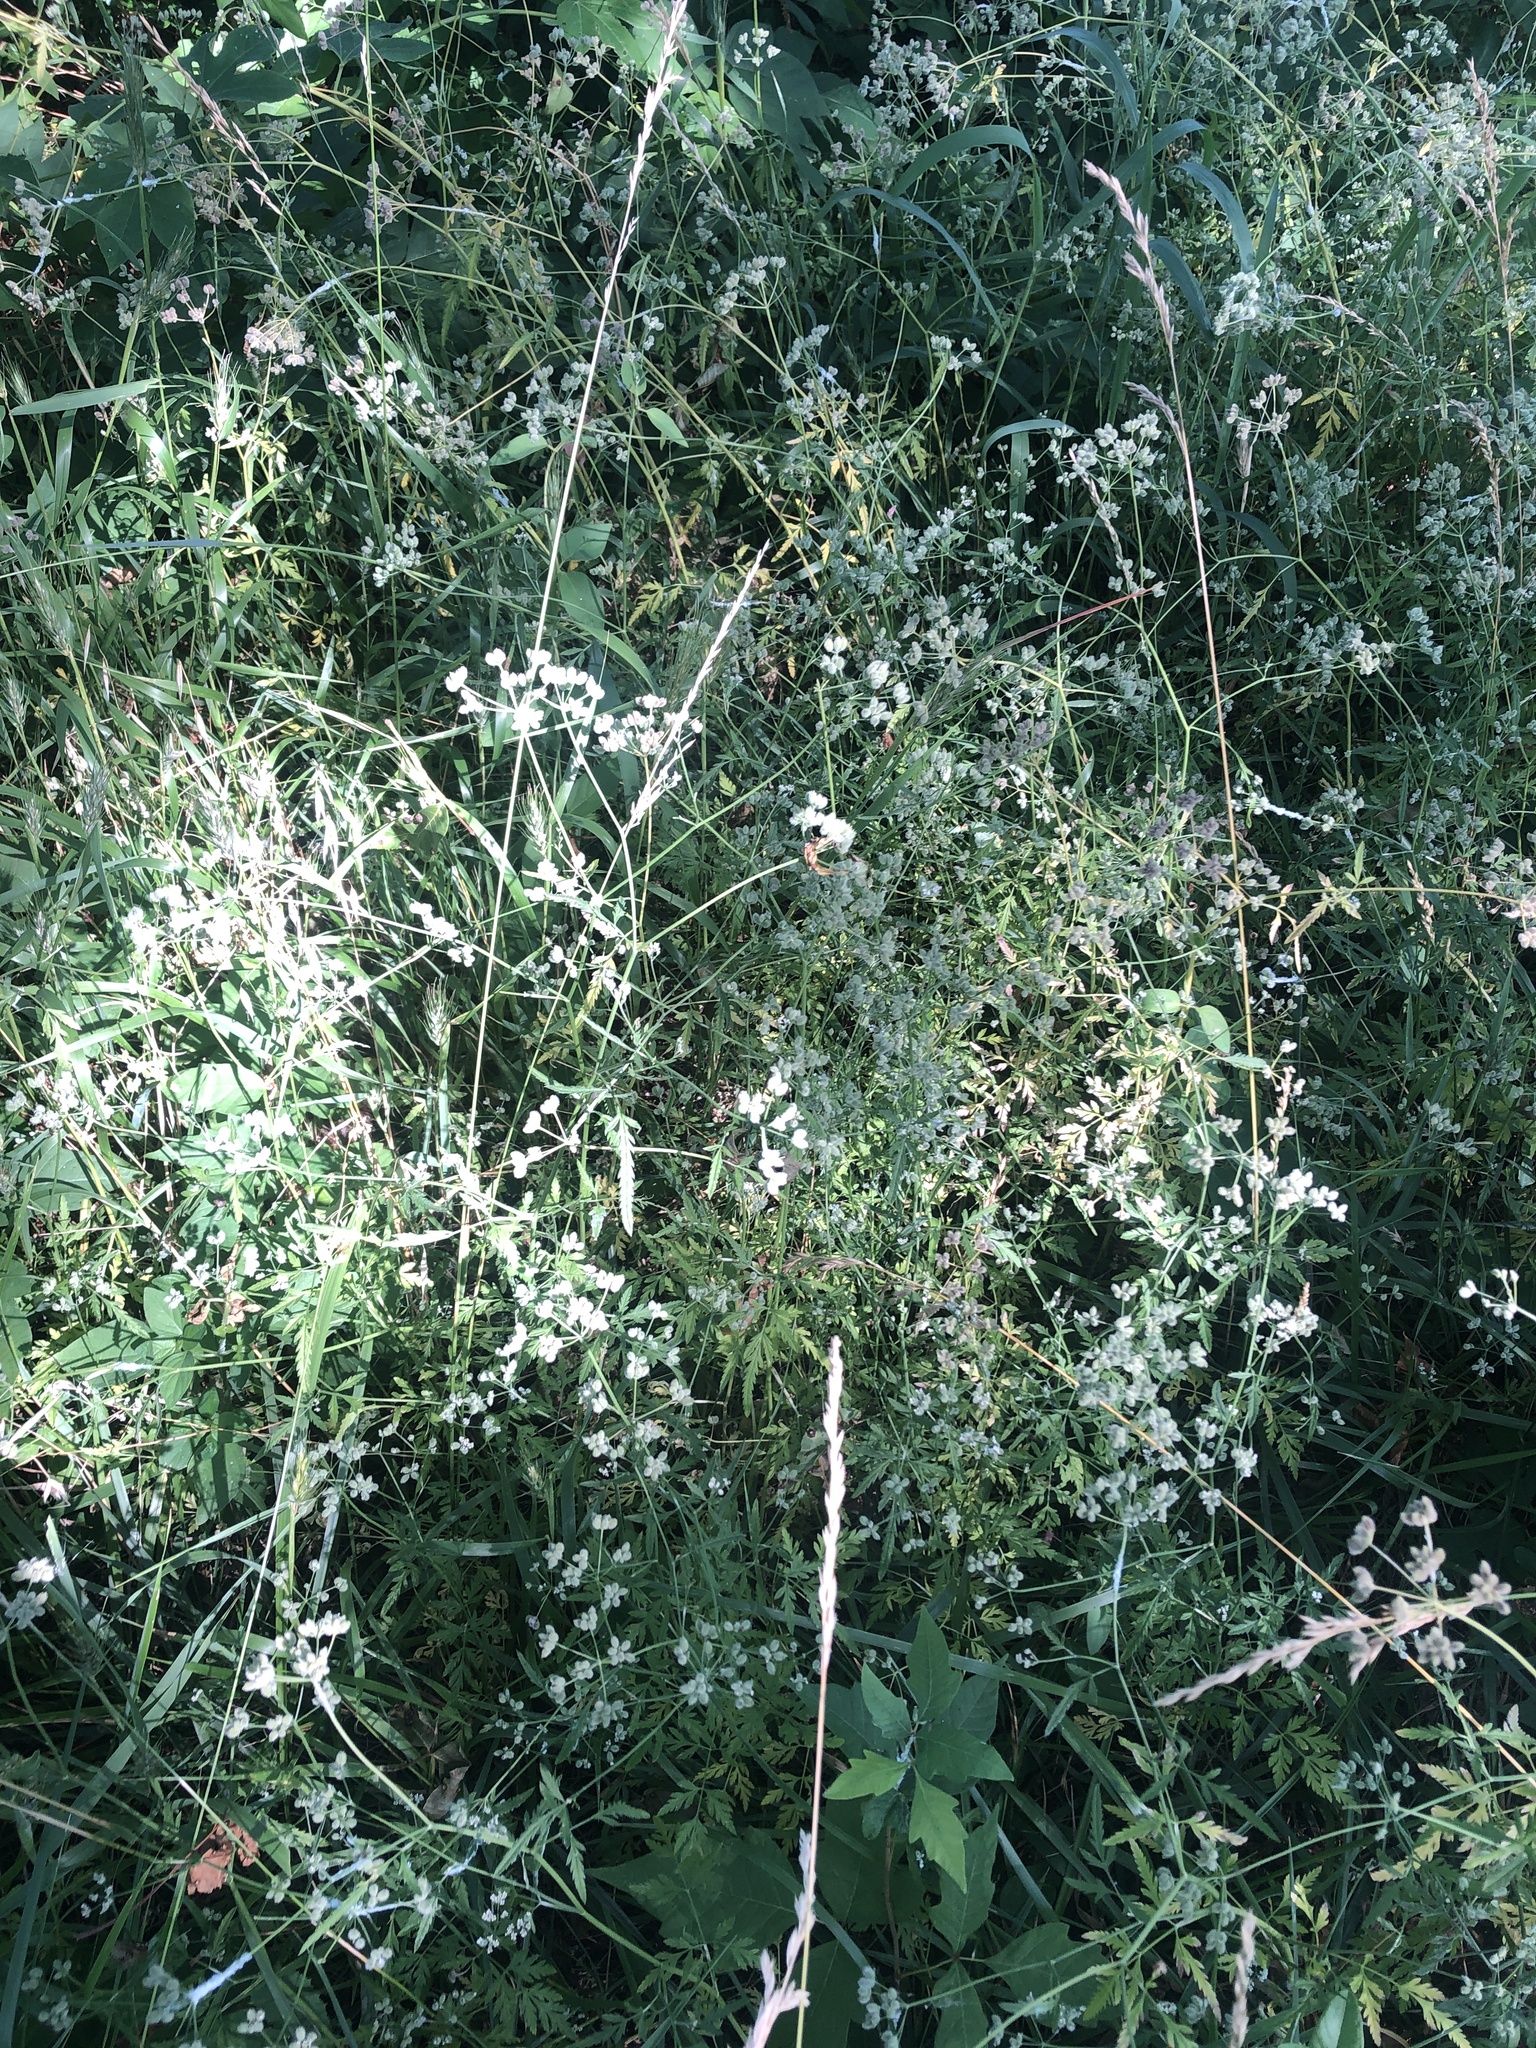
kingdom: Plantae
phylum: Tracheophyta
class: Magnoliopsida
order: Apiales
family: Apiaceae
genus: Torilis
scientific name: Torilis arvensis
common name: Spreading hedge-parsley
